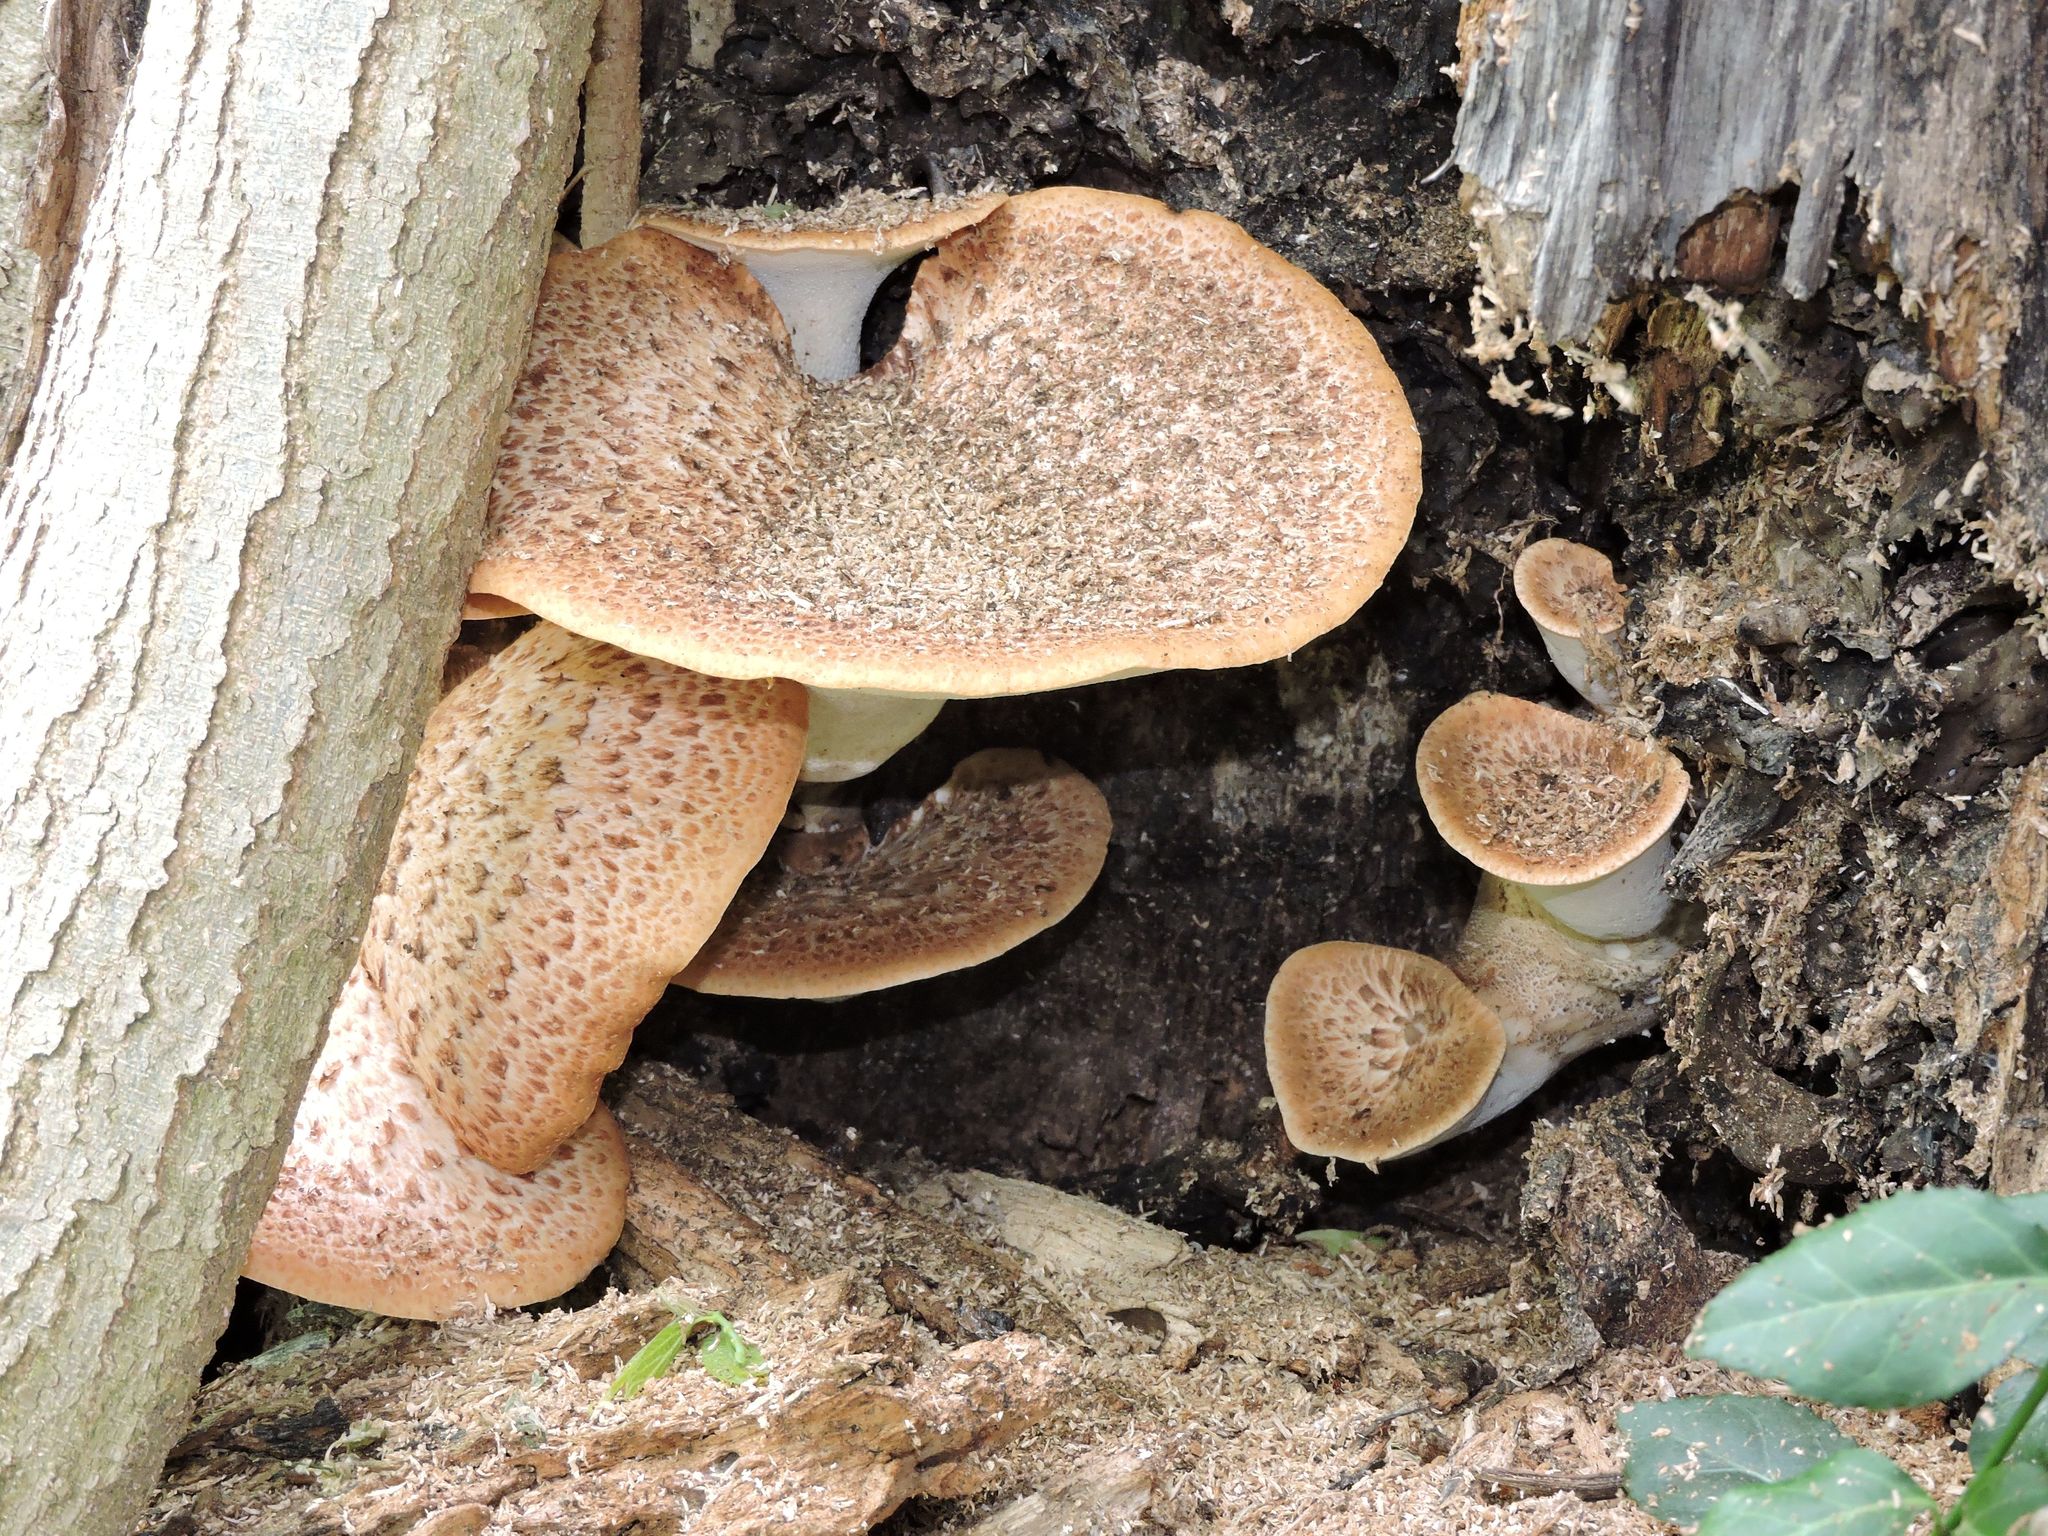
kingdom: Fungi
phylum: Basidiomycota
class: Agaricomycetes
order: Polyporales
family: Polyporaceae
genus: Cerioporus
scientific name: Cerioporus squamosus
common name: Dryad's saddle
